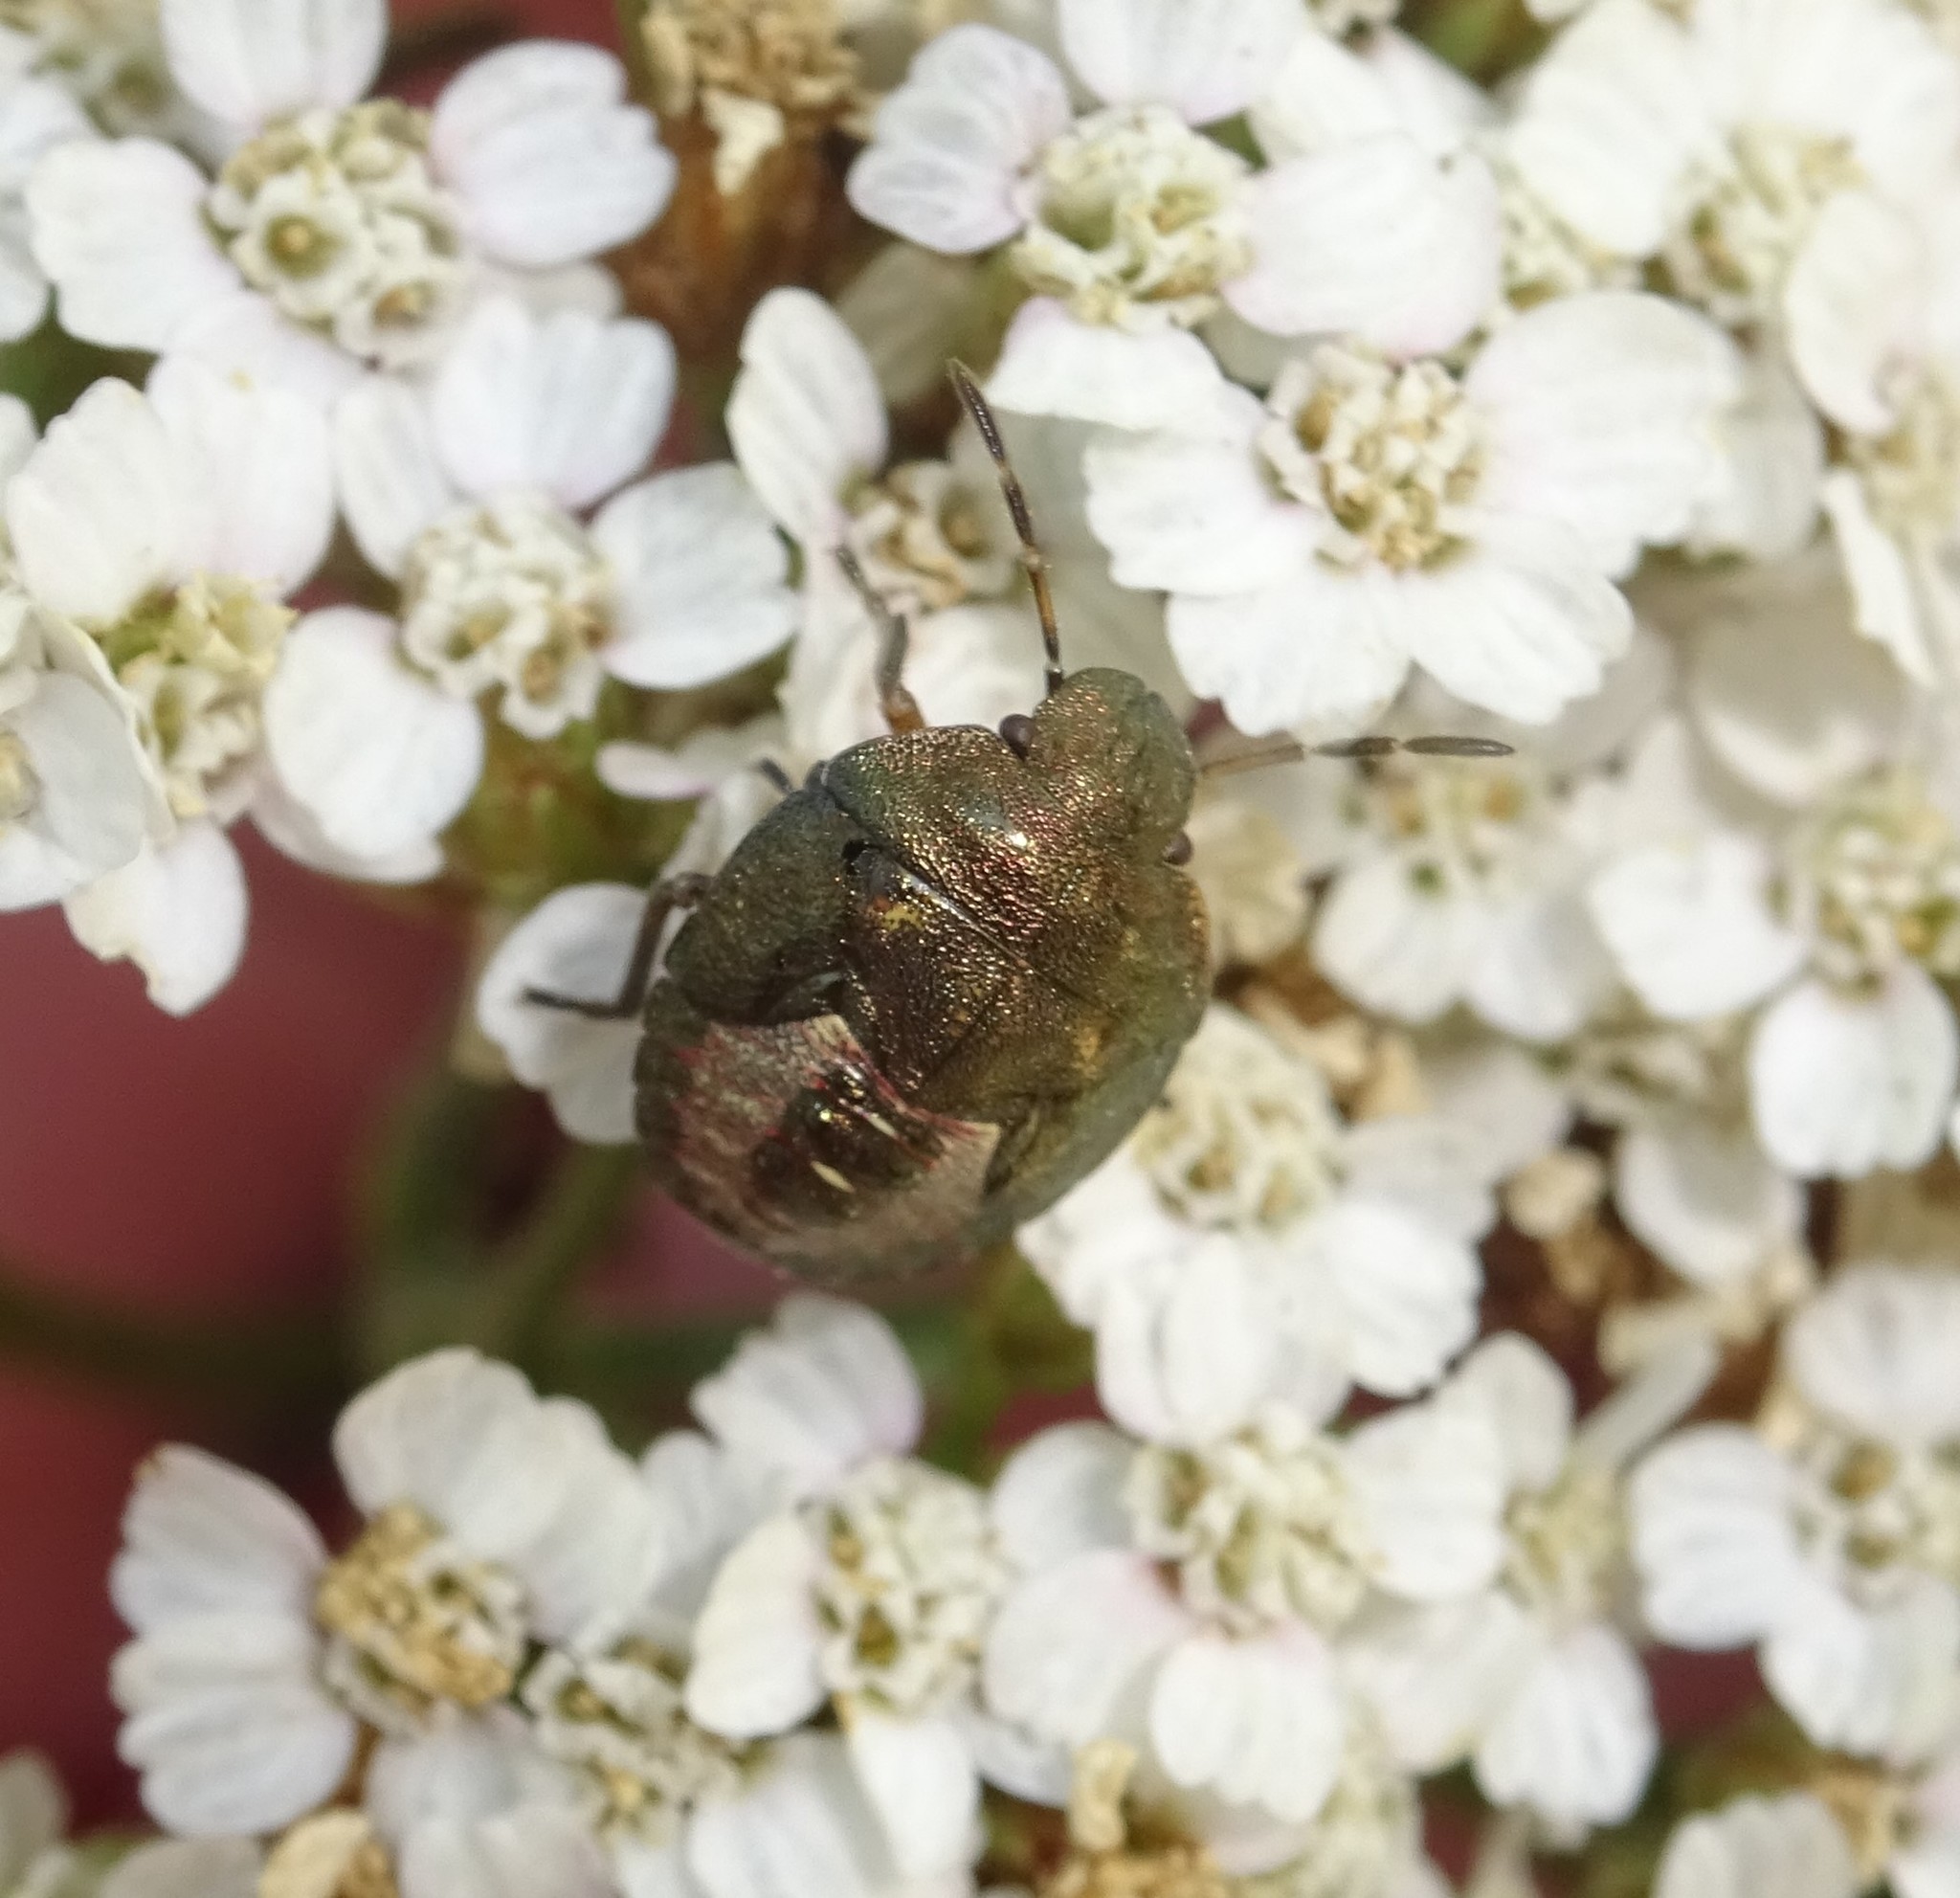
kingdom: Animalia
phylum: Arthropoda
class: Insecta
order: Hemiptera
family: Pentatomidae
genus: Holcostethus
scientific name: Holcostethus strictus
